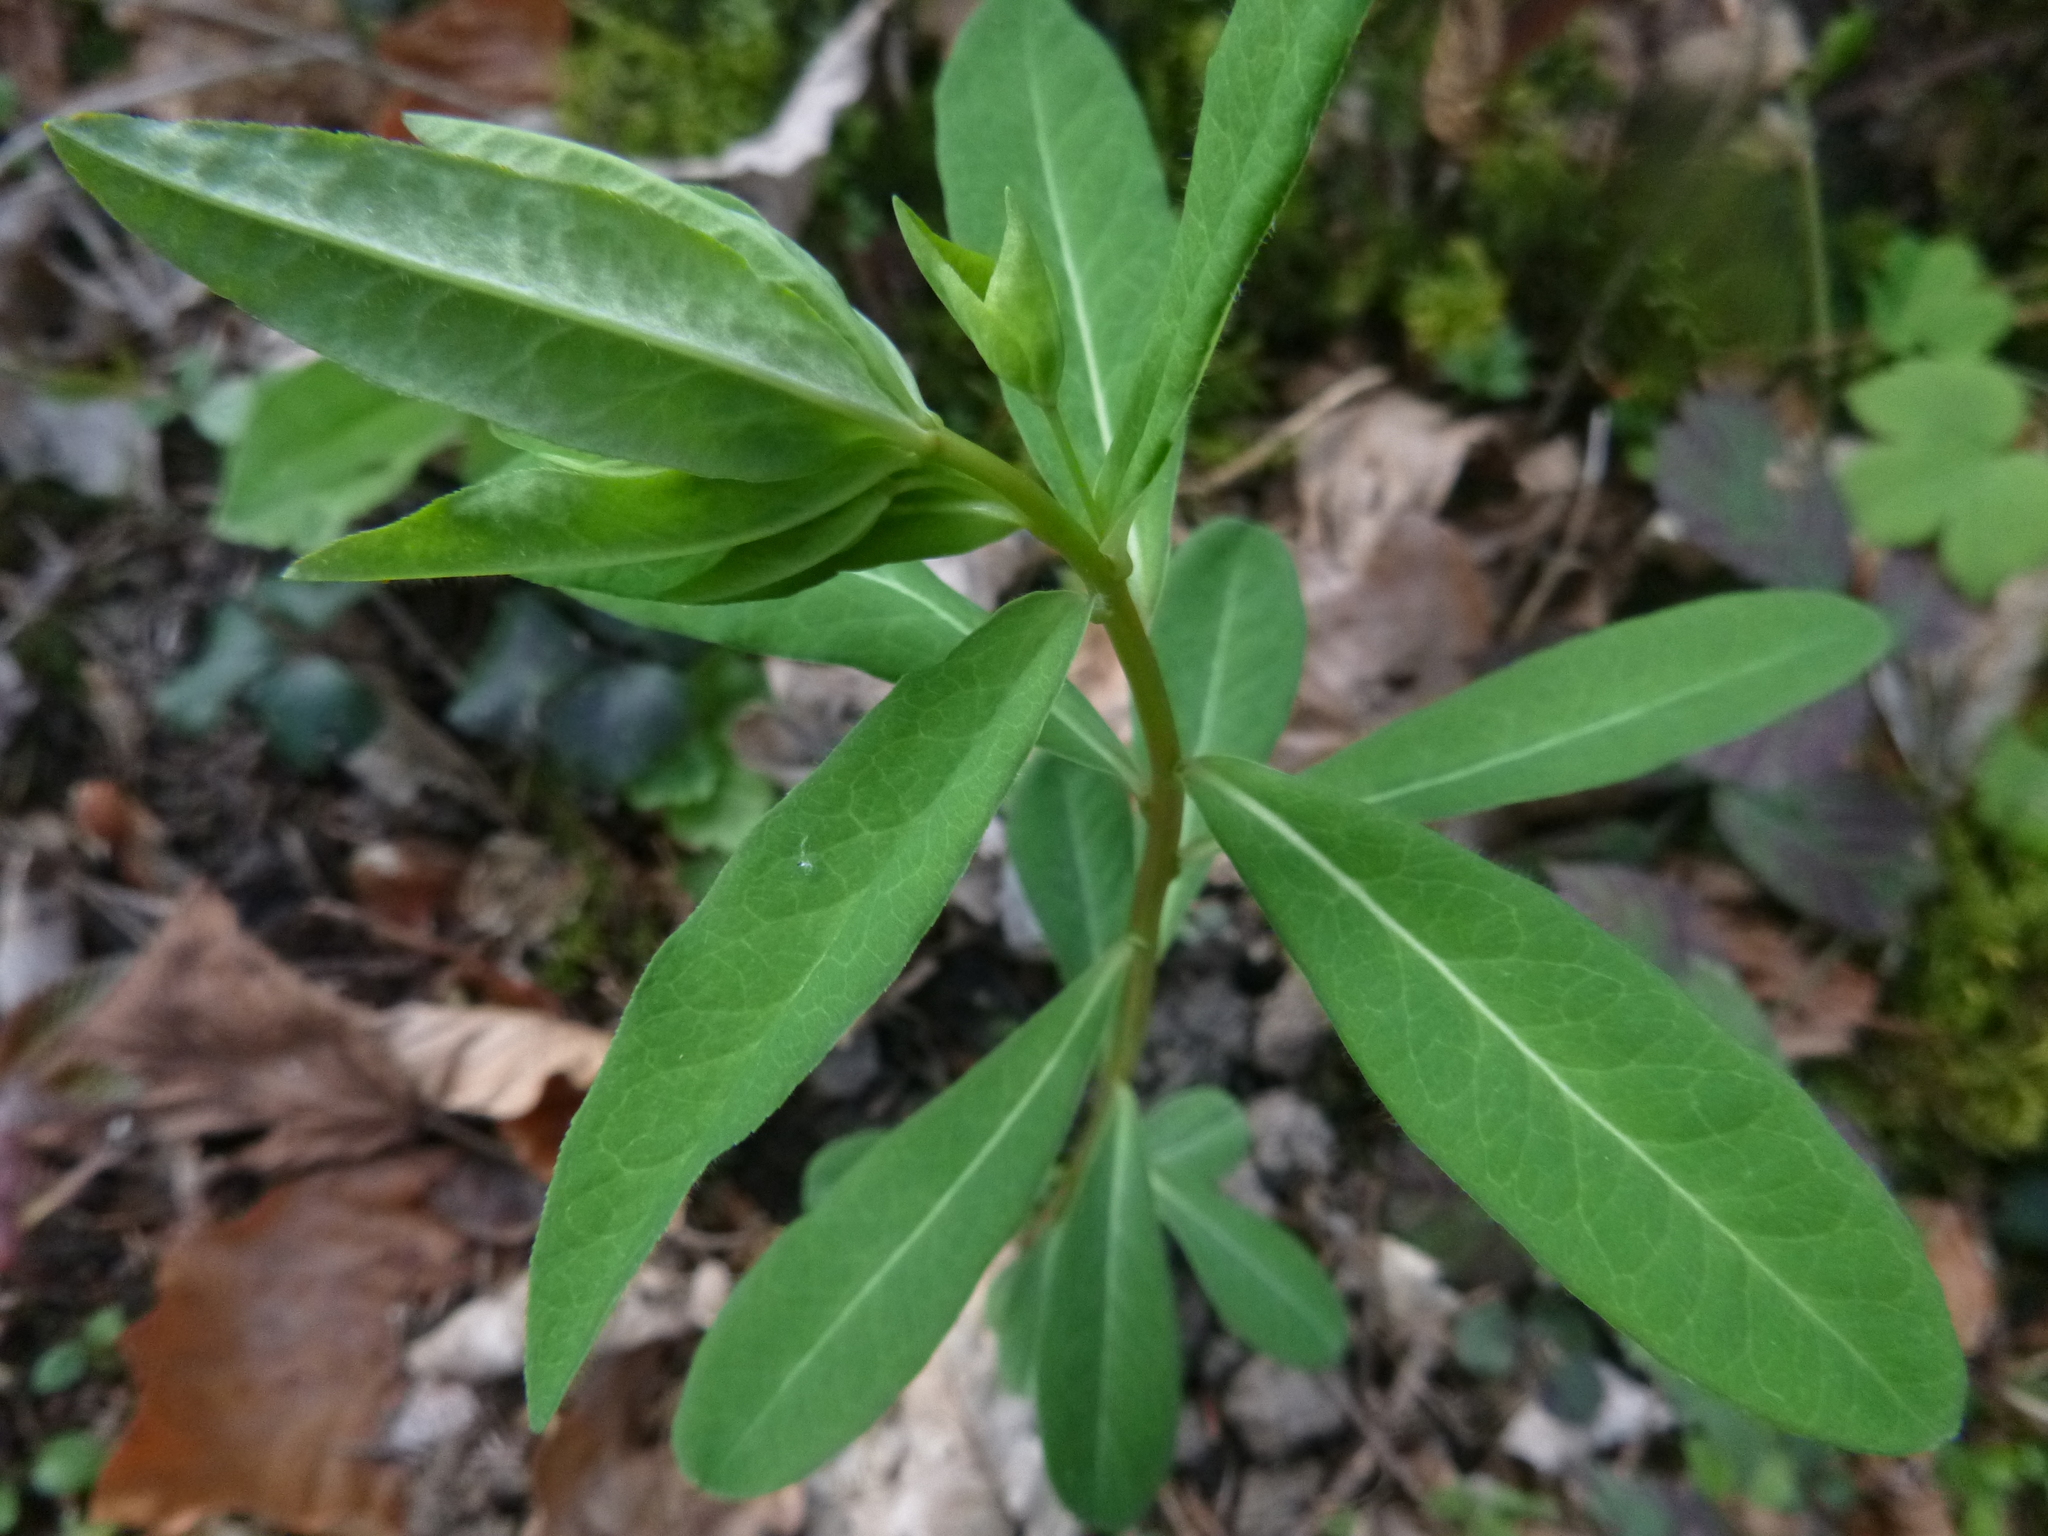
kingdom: Plantae
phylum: Tracheophyta
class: Magnoliopsida
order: Malpighiales
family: Euphorbiaceae
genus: Euphorbia
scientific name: Euphorbia dulcis
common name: Sweet spurge
